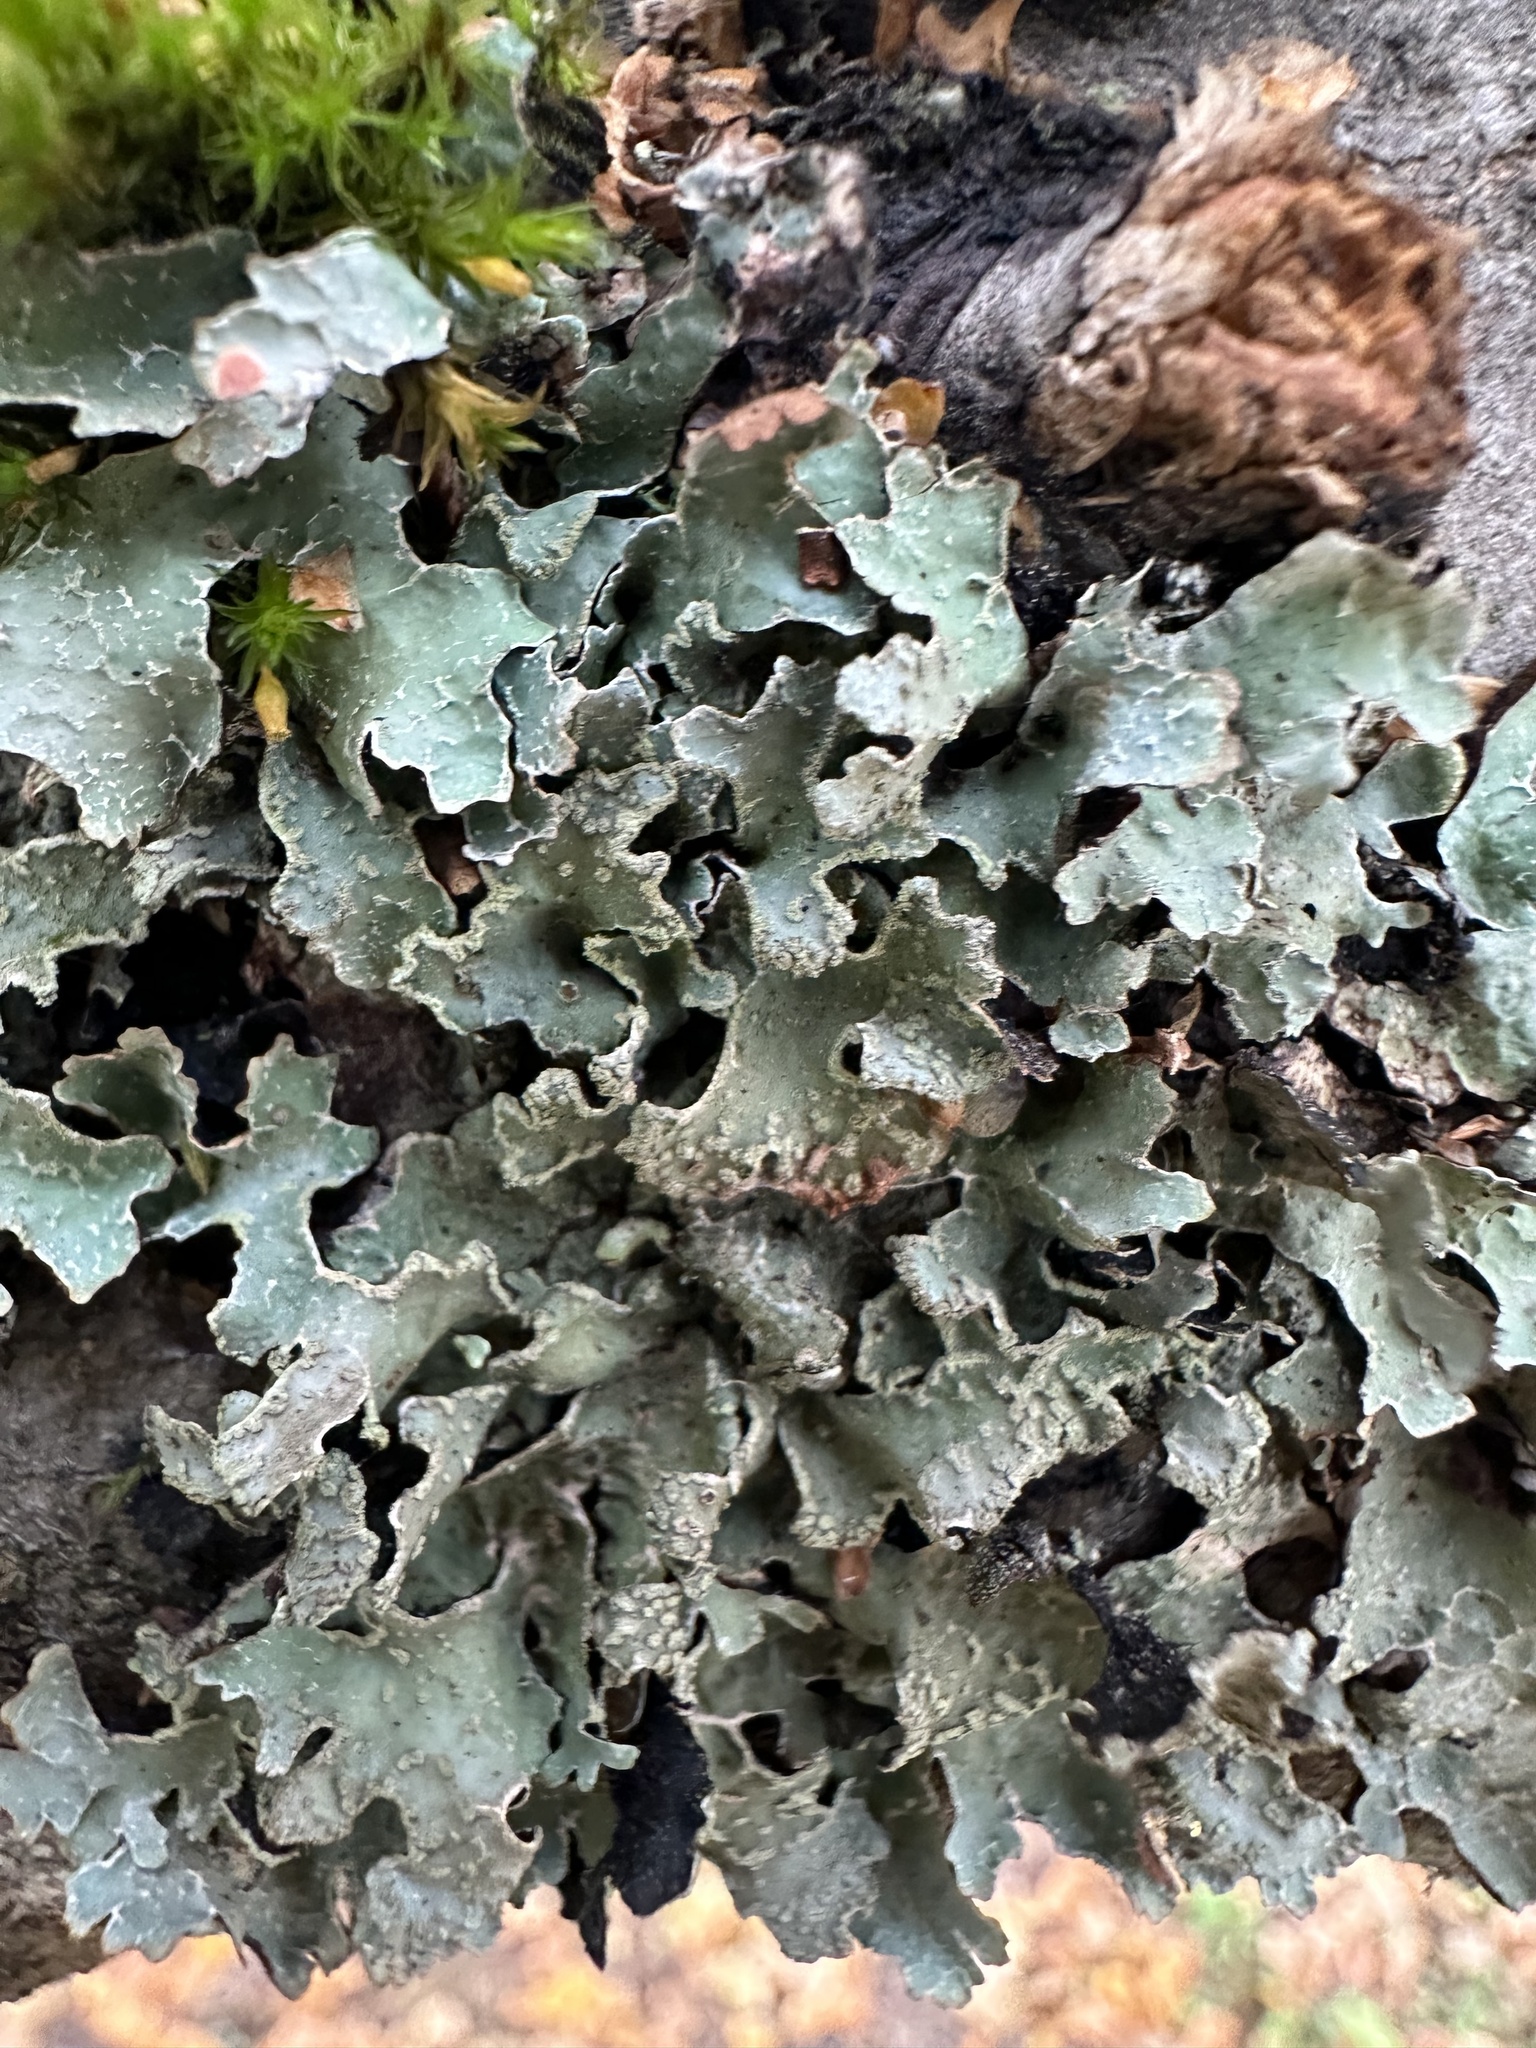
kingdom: Fungi
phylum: Ascomycota
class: Lecanoromycetes
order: Lecanorales
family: Parmeliaceae
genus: Parmelia
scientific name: Parmelia sulcata
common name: Netted shield lichen
